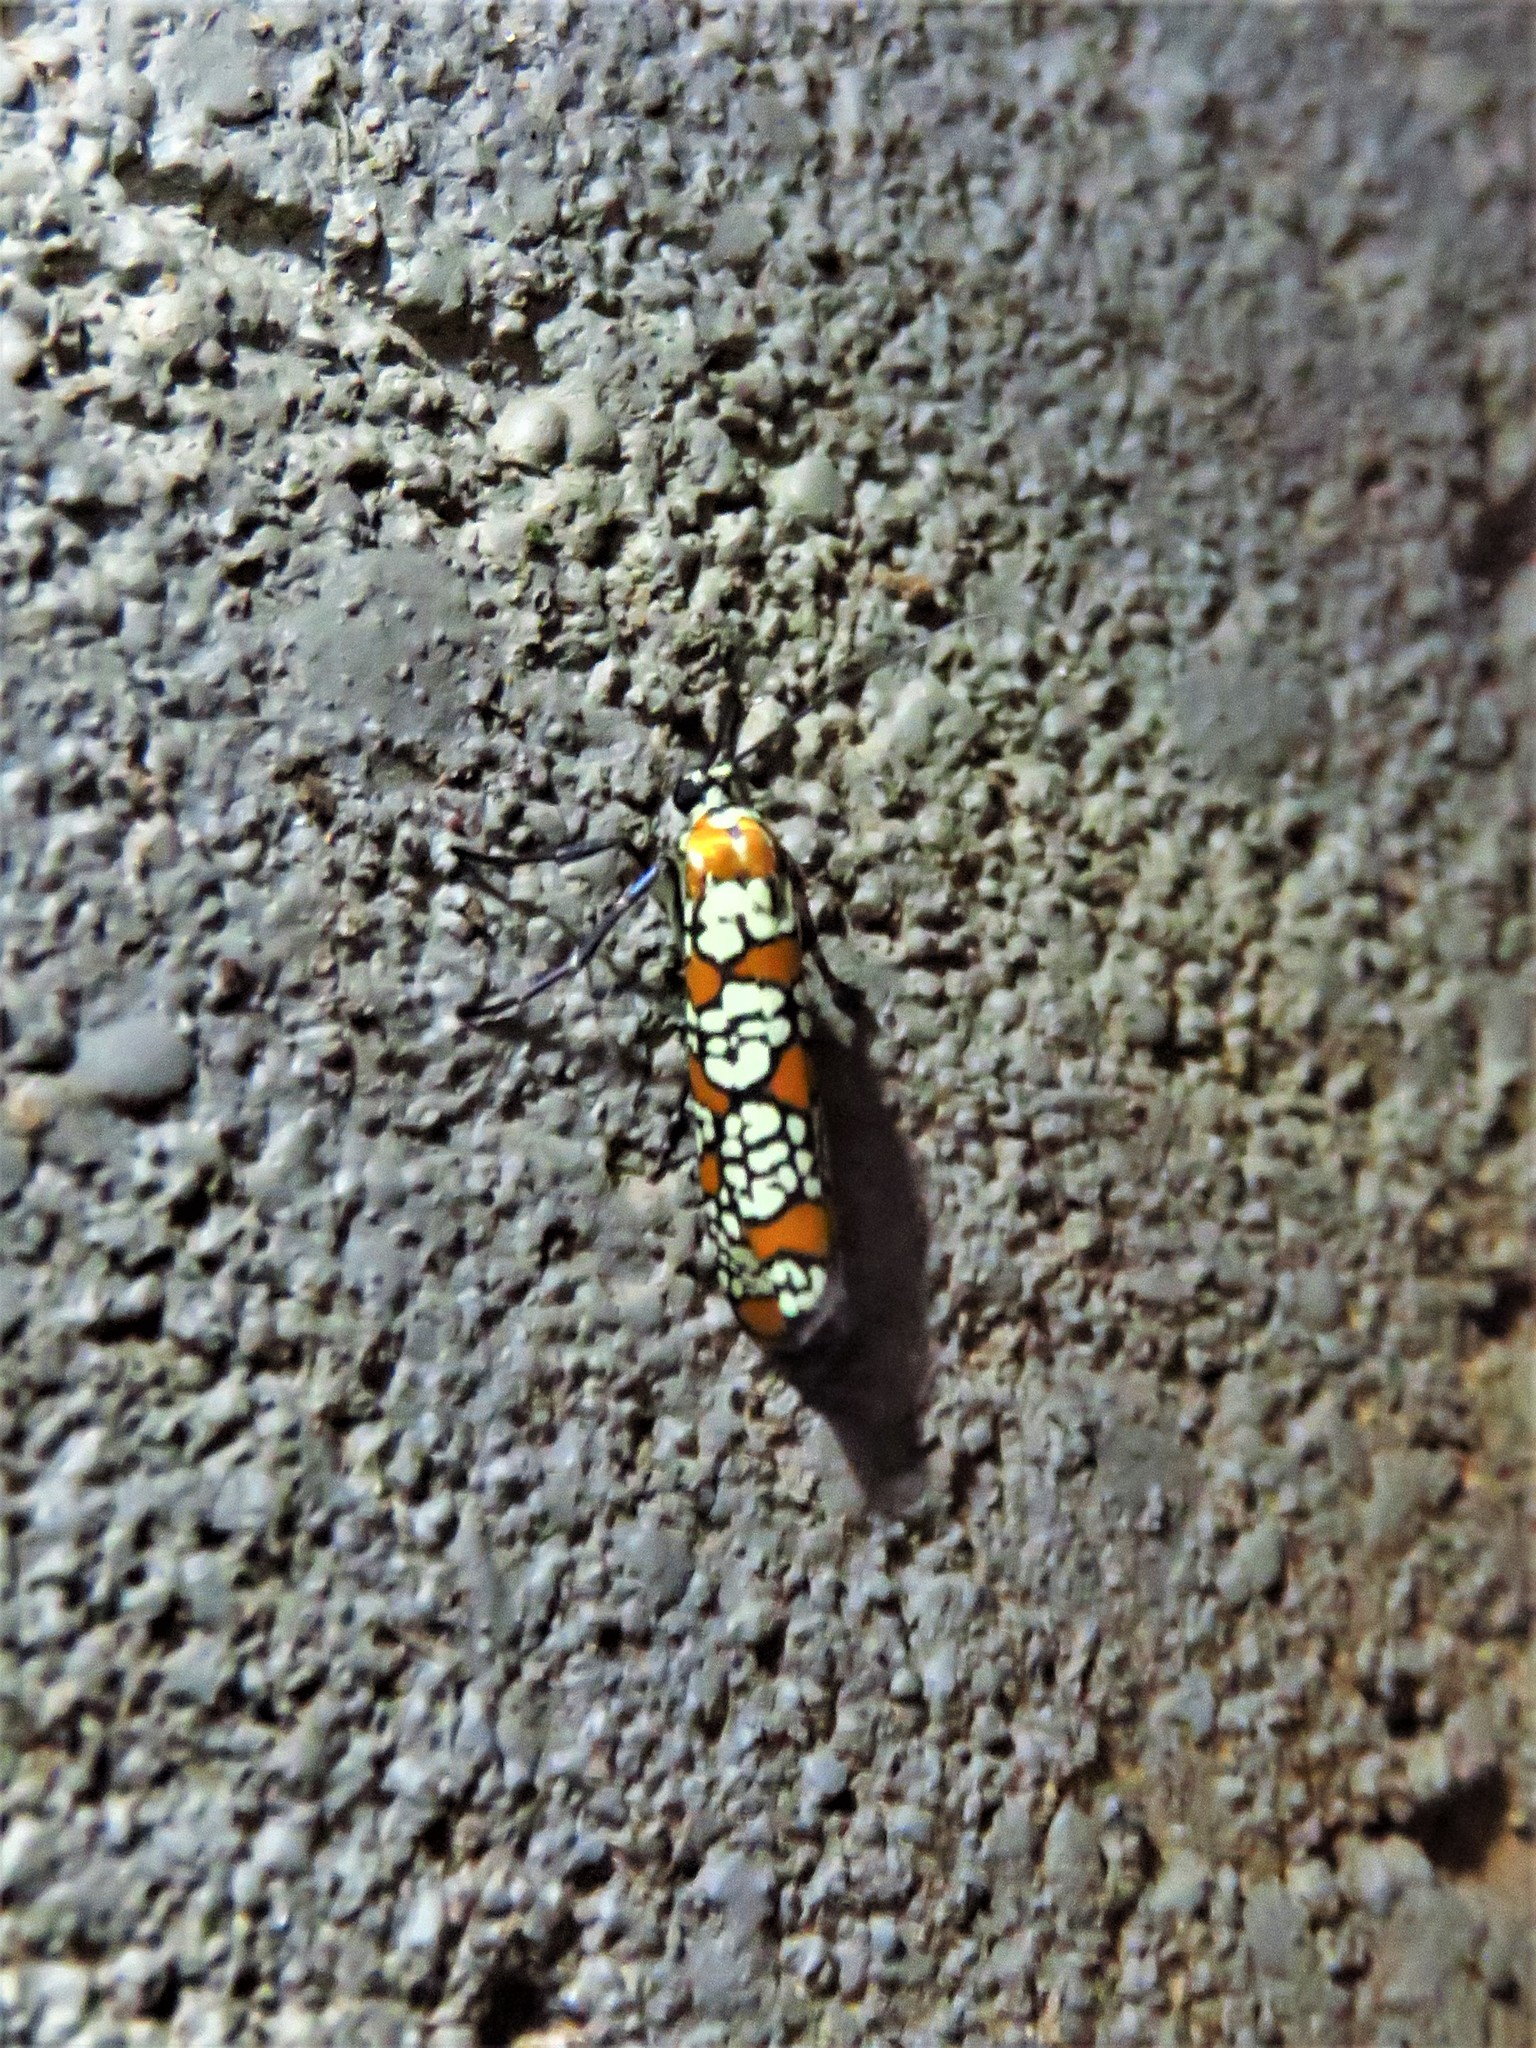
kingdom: Animalia
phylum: Arthropoda
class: Insecta
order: Lepidoptera
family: Attevidae
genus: Atteva
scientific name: Atteva punctella
